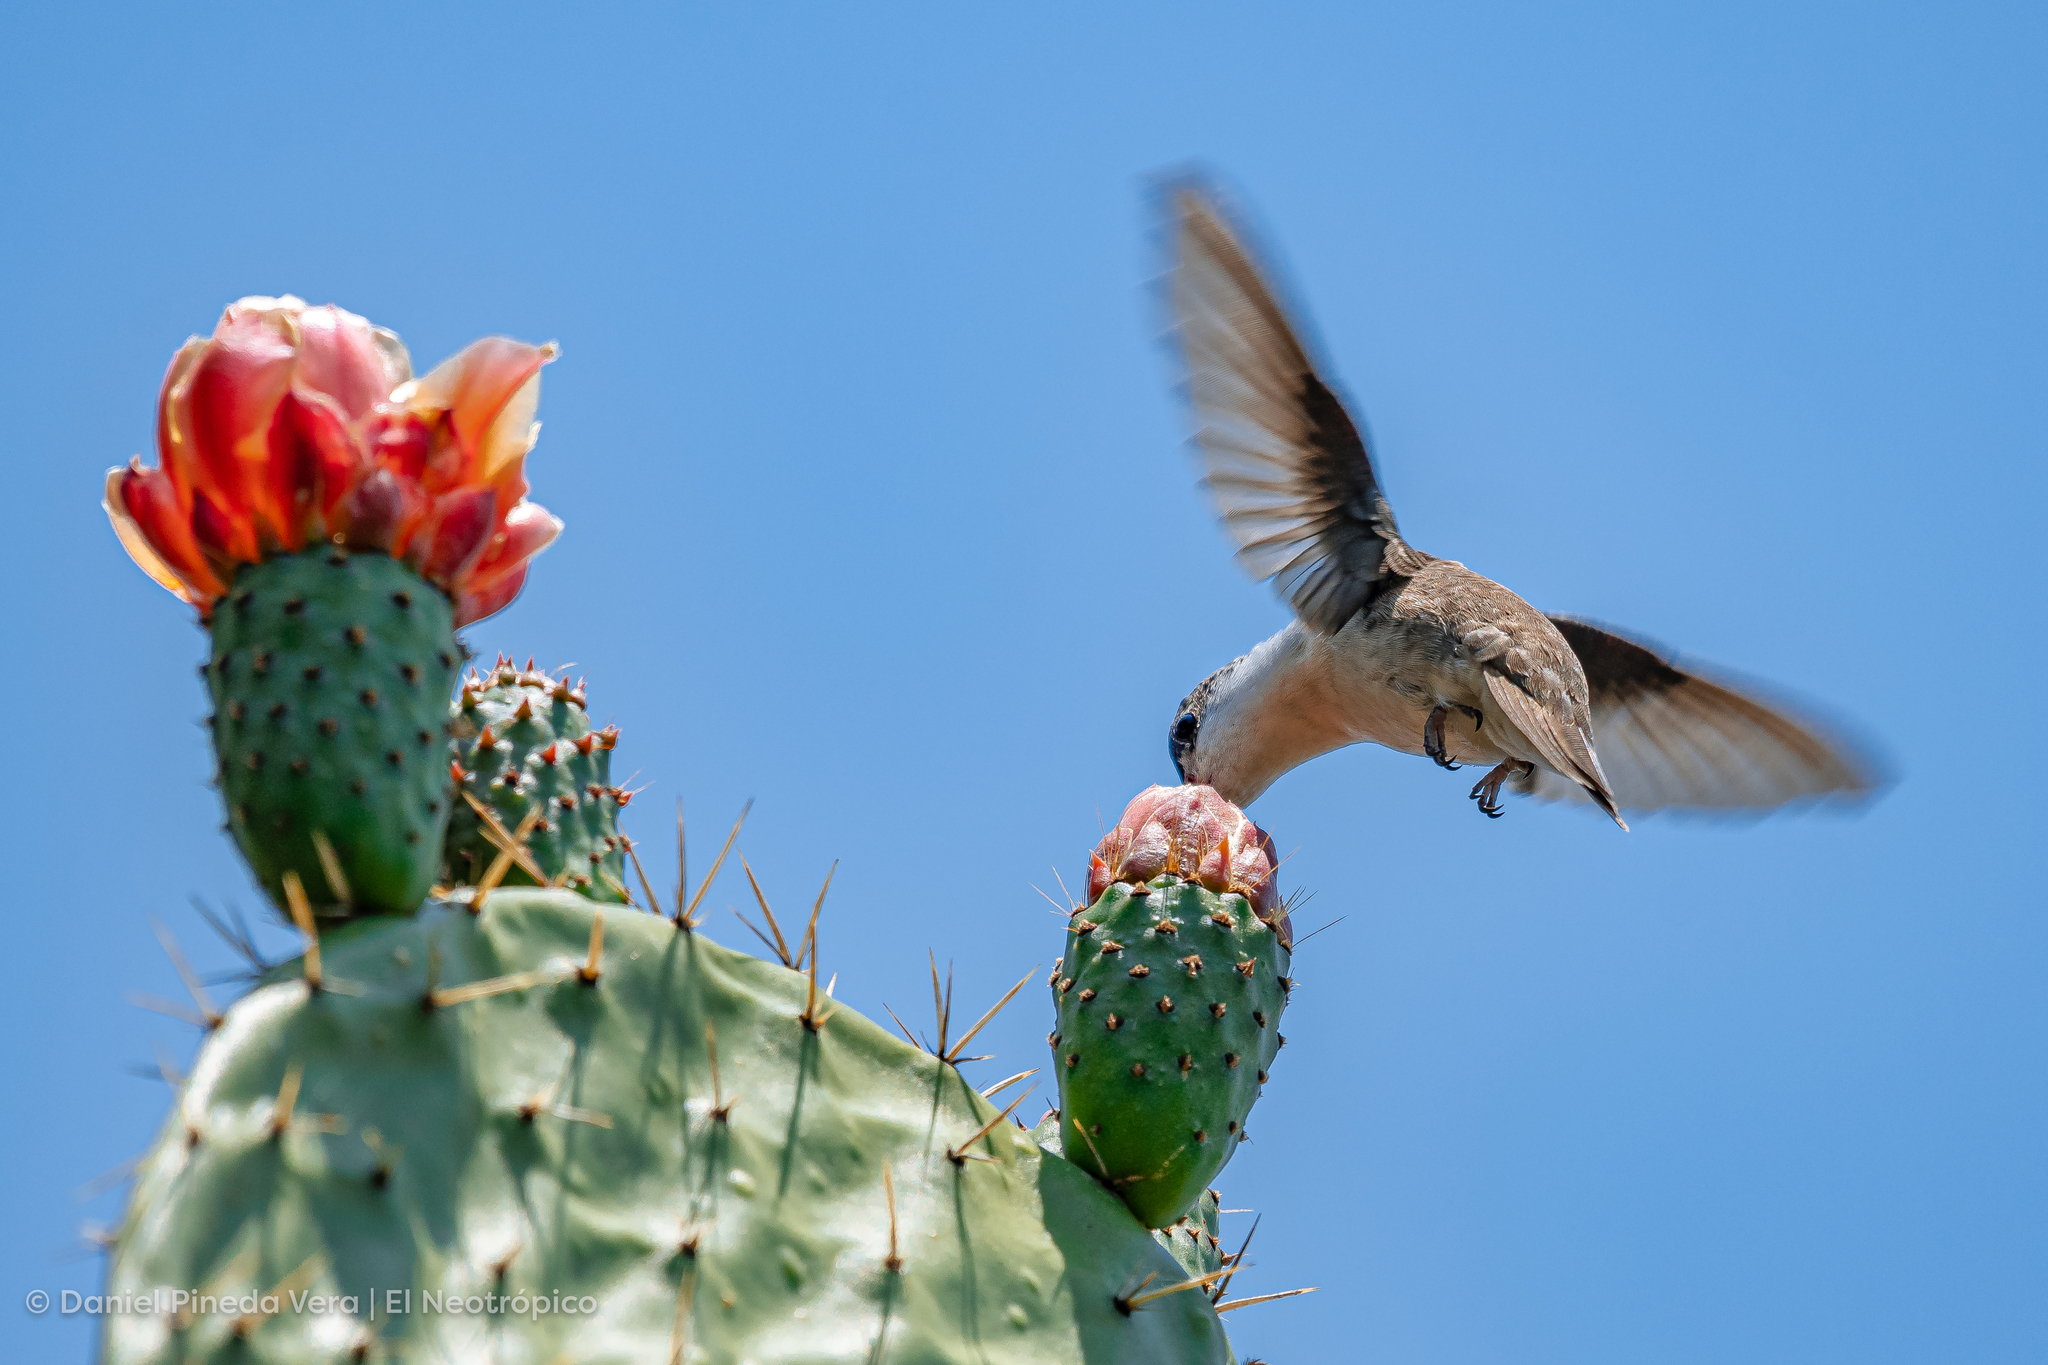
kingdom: Animalia
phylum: Chordata
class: Aves
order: Apodiformes
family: Trochilidae
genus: Leucolia
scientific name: Leucolia violiceps
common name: Violet-crowned hummingbird
